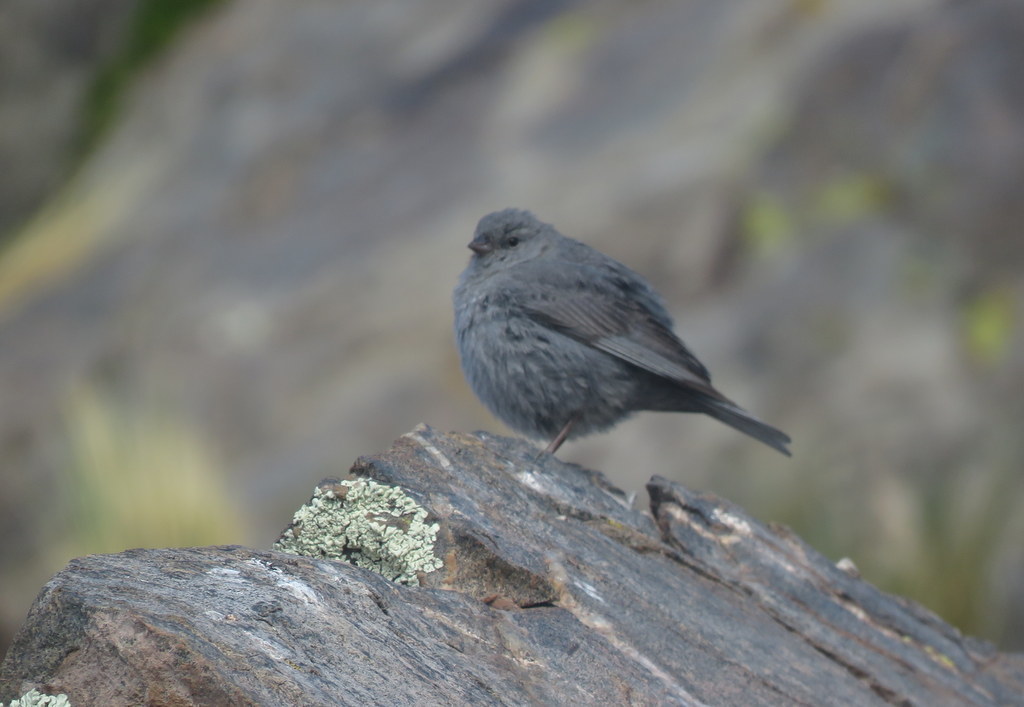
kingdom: Animalia
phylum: Chordata
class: Aves
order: Passeriformes
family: Thraupidae
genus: Geospizopsis
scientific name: Geospizopsis unicolor
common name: Plumbeous sierra-finch
